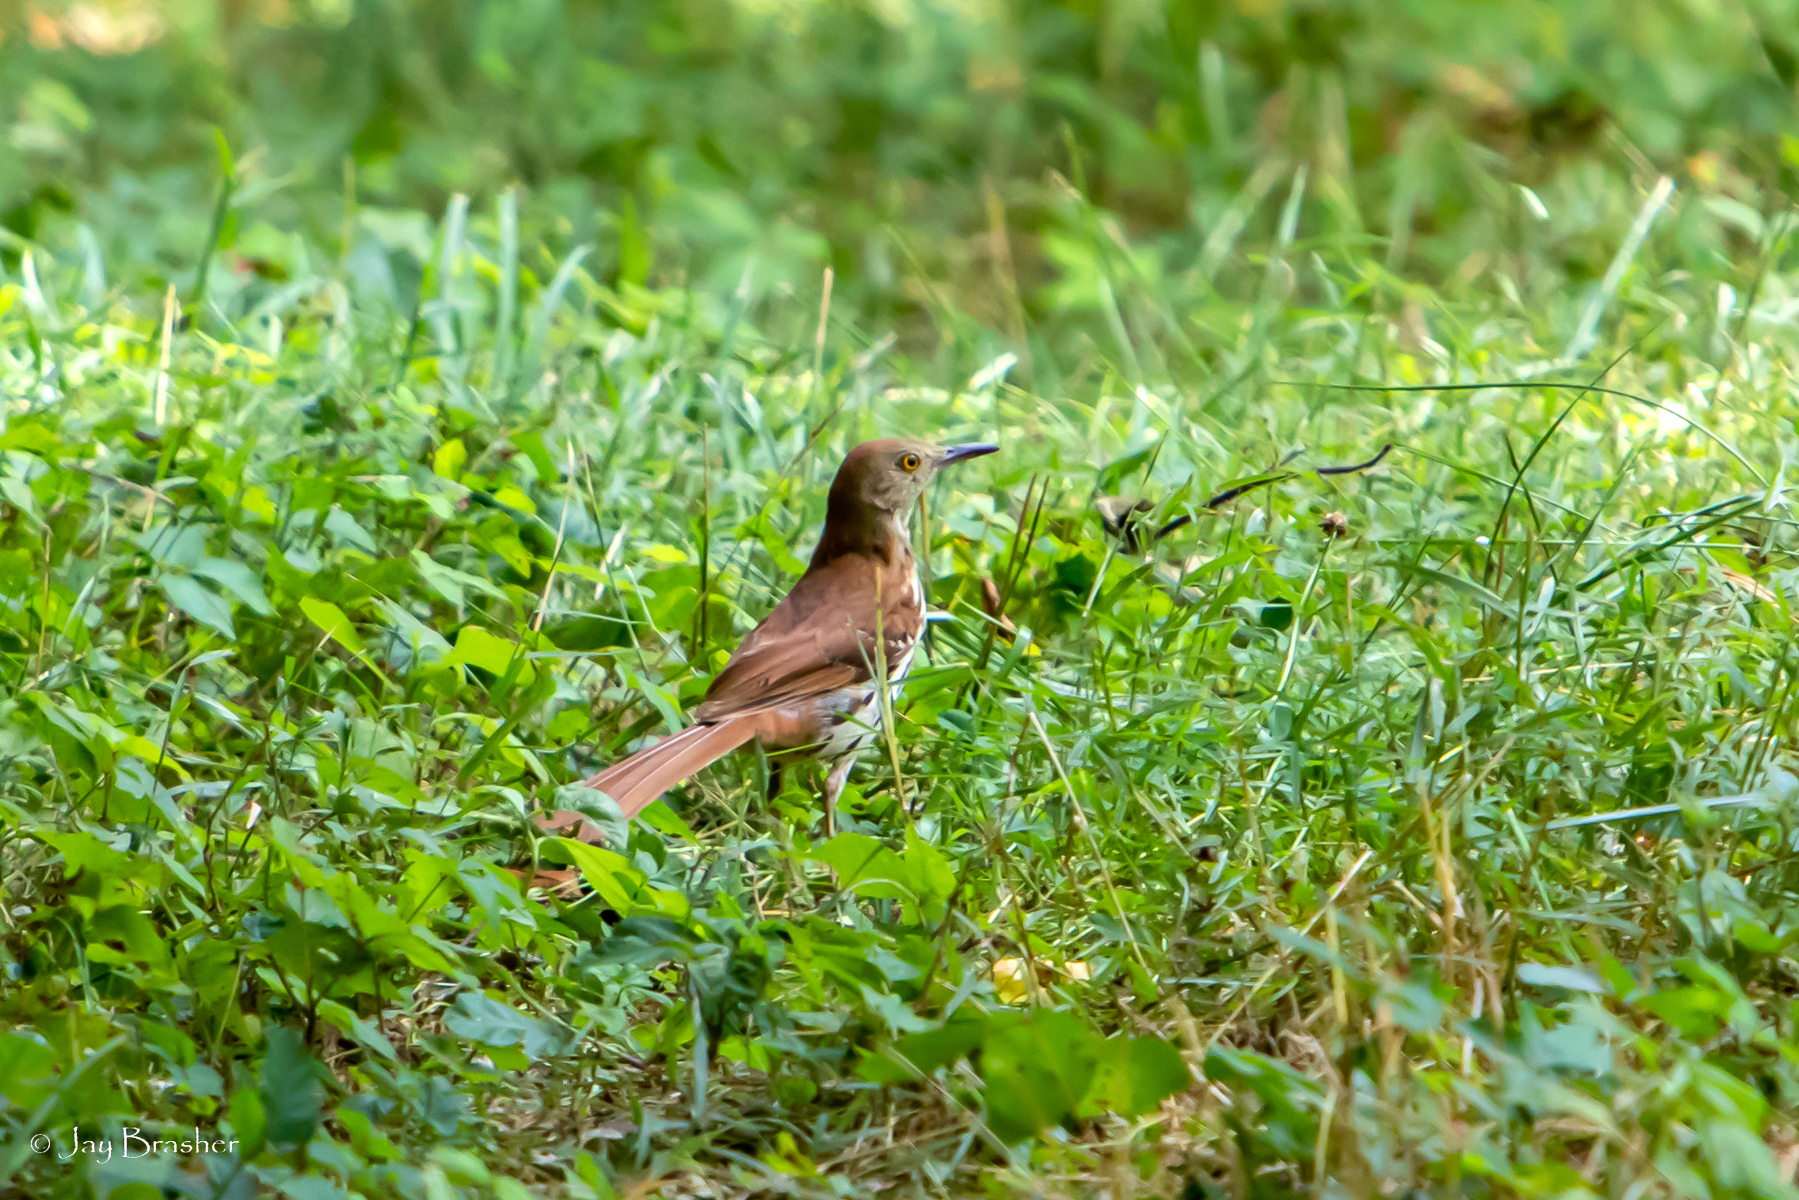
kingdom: Animalia
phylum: Chordata
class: Aves
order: Passeriformes
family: Mimidae
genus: Toxostoma
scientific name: Toxostoma rufum
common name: Brown thrasher
